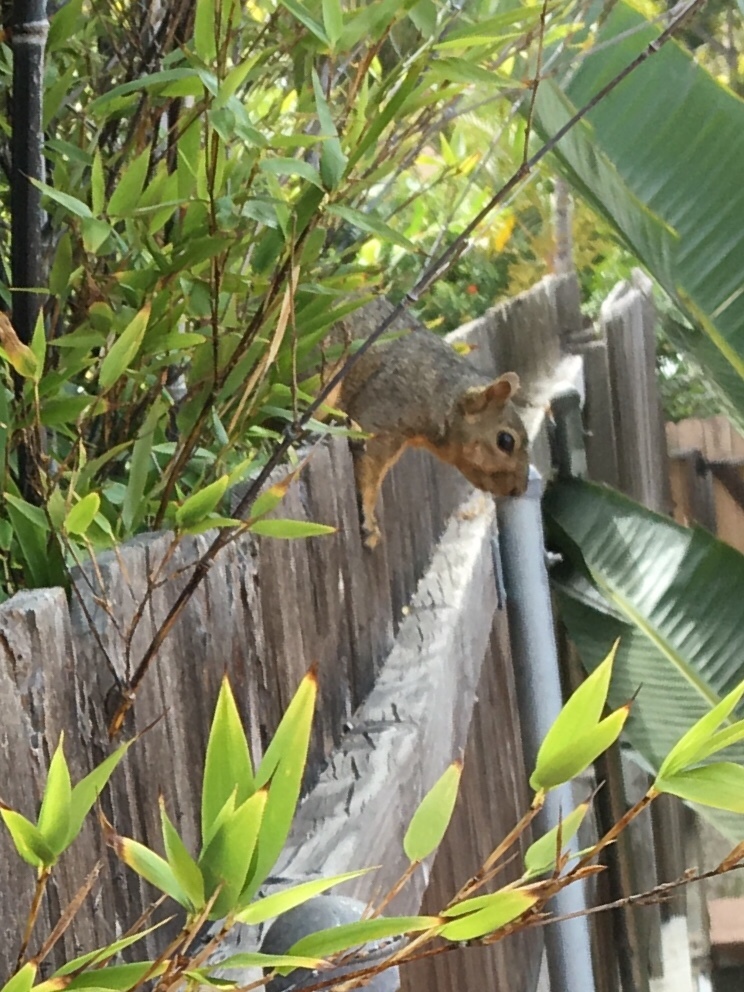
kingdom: Animalia
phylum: Chordata
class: Mammalia
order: Rodentia
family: Sciuridae
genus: Sciurus
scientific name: Sciurus niger
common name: Fox squirrel
